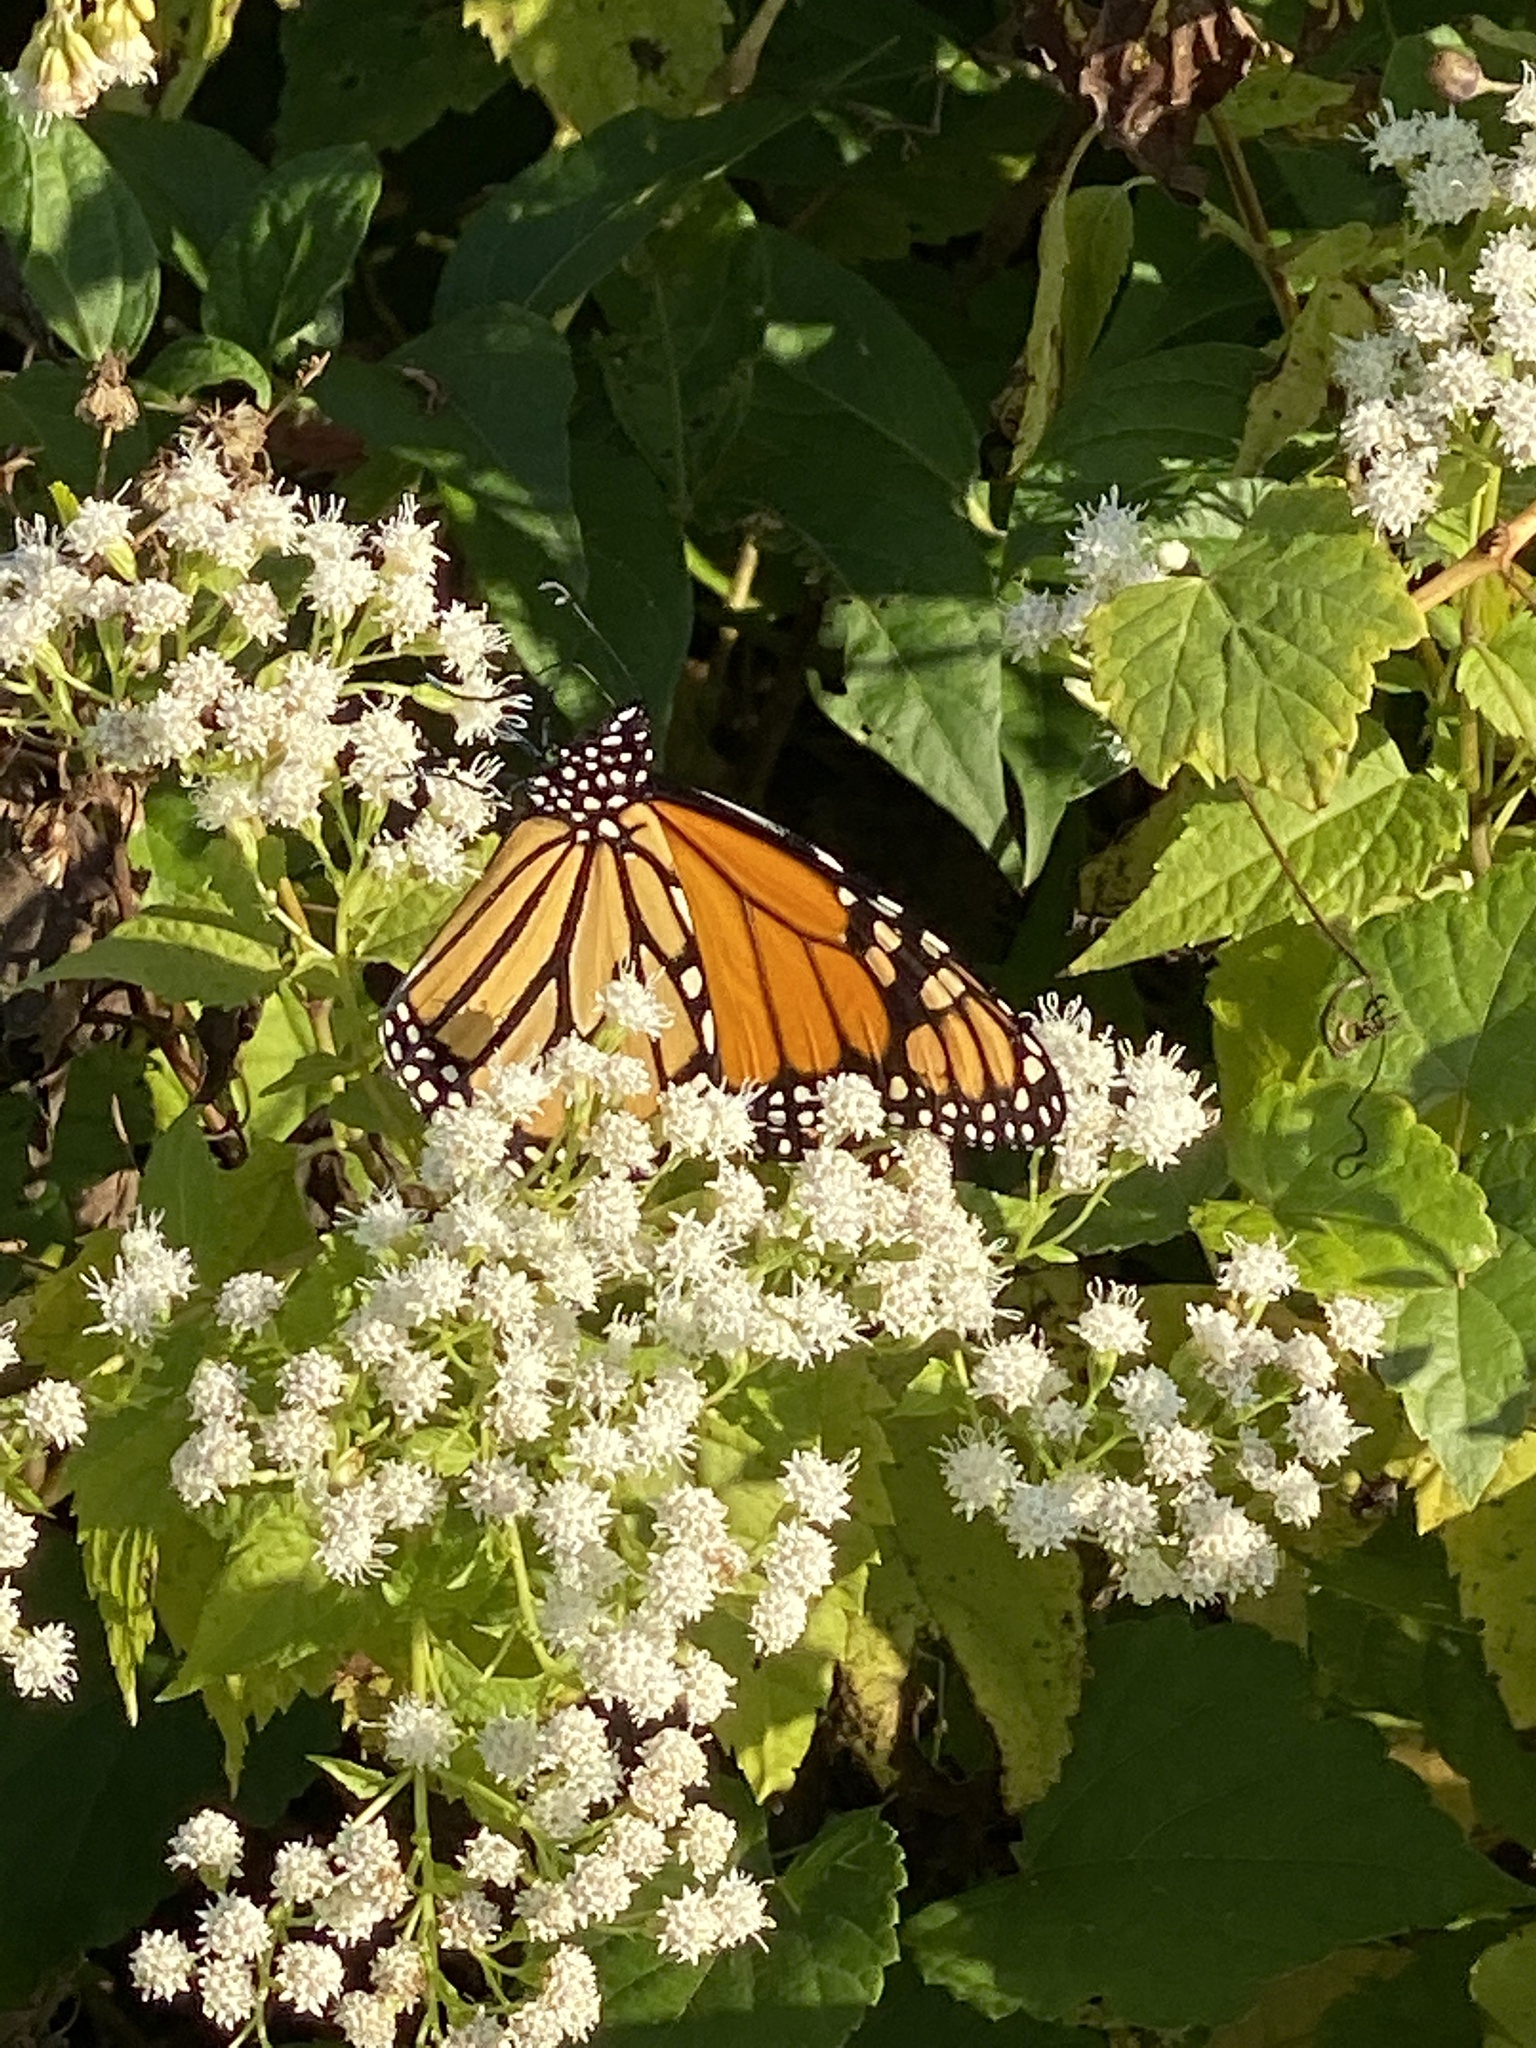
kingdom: Animalia
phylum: Arthropoda
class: Insecta
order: Lepidoptera
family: Nymphalidae
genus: Danaus
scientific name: Danaus plexippus
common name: Monarch
